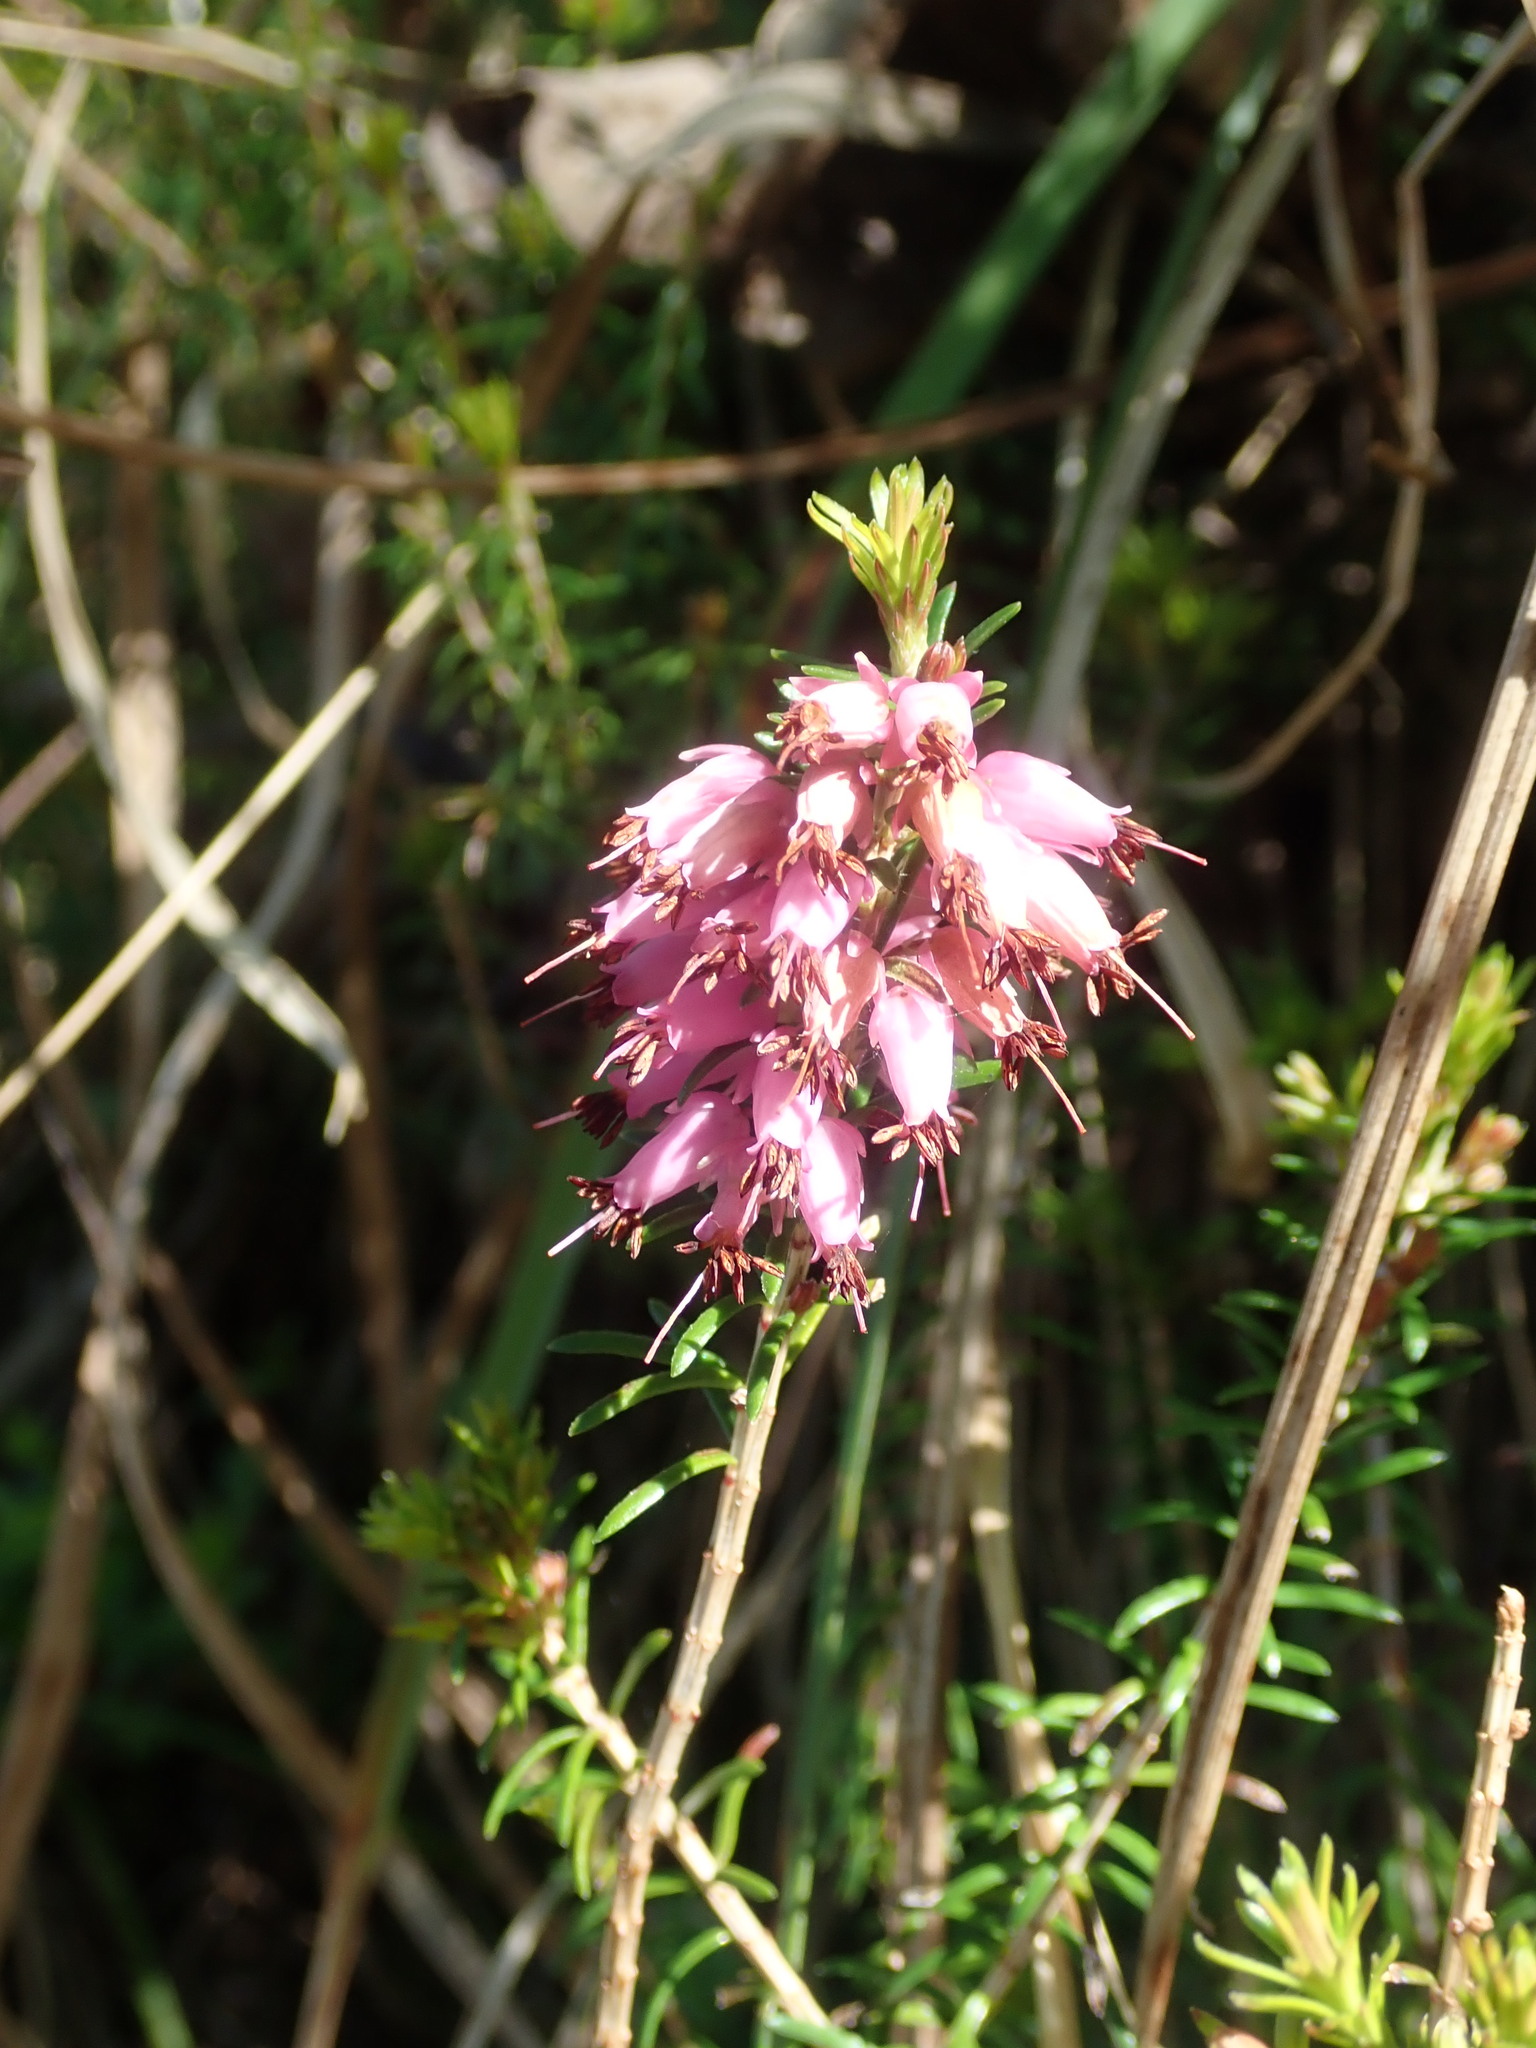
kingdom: Plantae
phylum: Tracheophyta
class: Magnoliopsida
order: Ericales
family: Ericaceae
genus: Erica
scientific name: Erica carnea
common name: Winter heath
